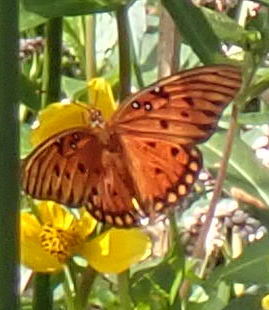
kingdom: Animalia
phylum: Arthropoda
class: Insecta
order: Lepidoptera
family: Nymphalidae
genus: Dione
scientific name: Dione vanillae
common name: Gulf fritillary
